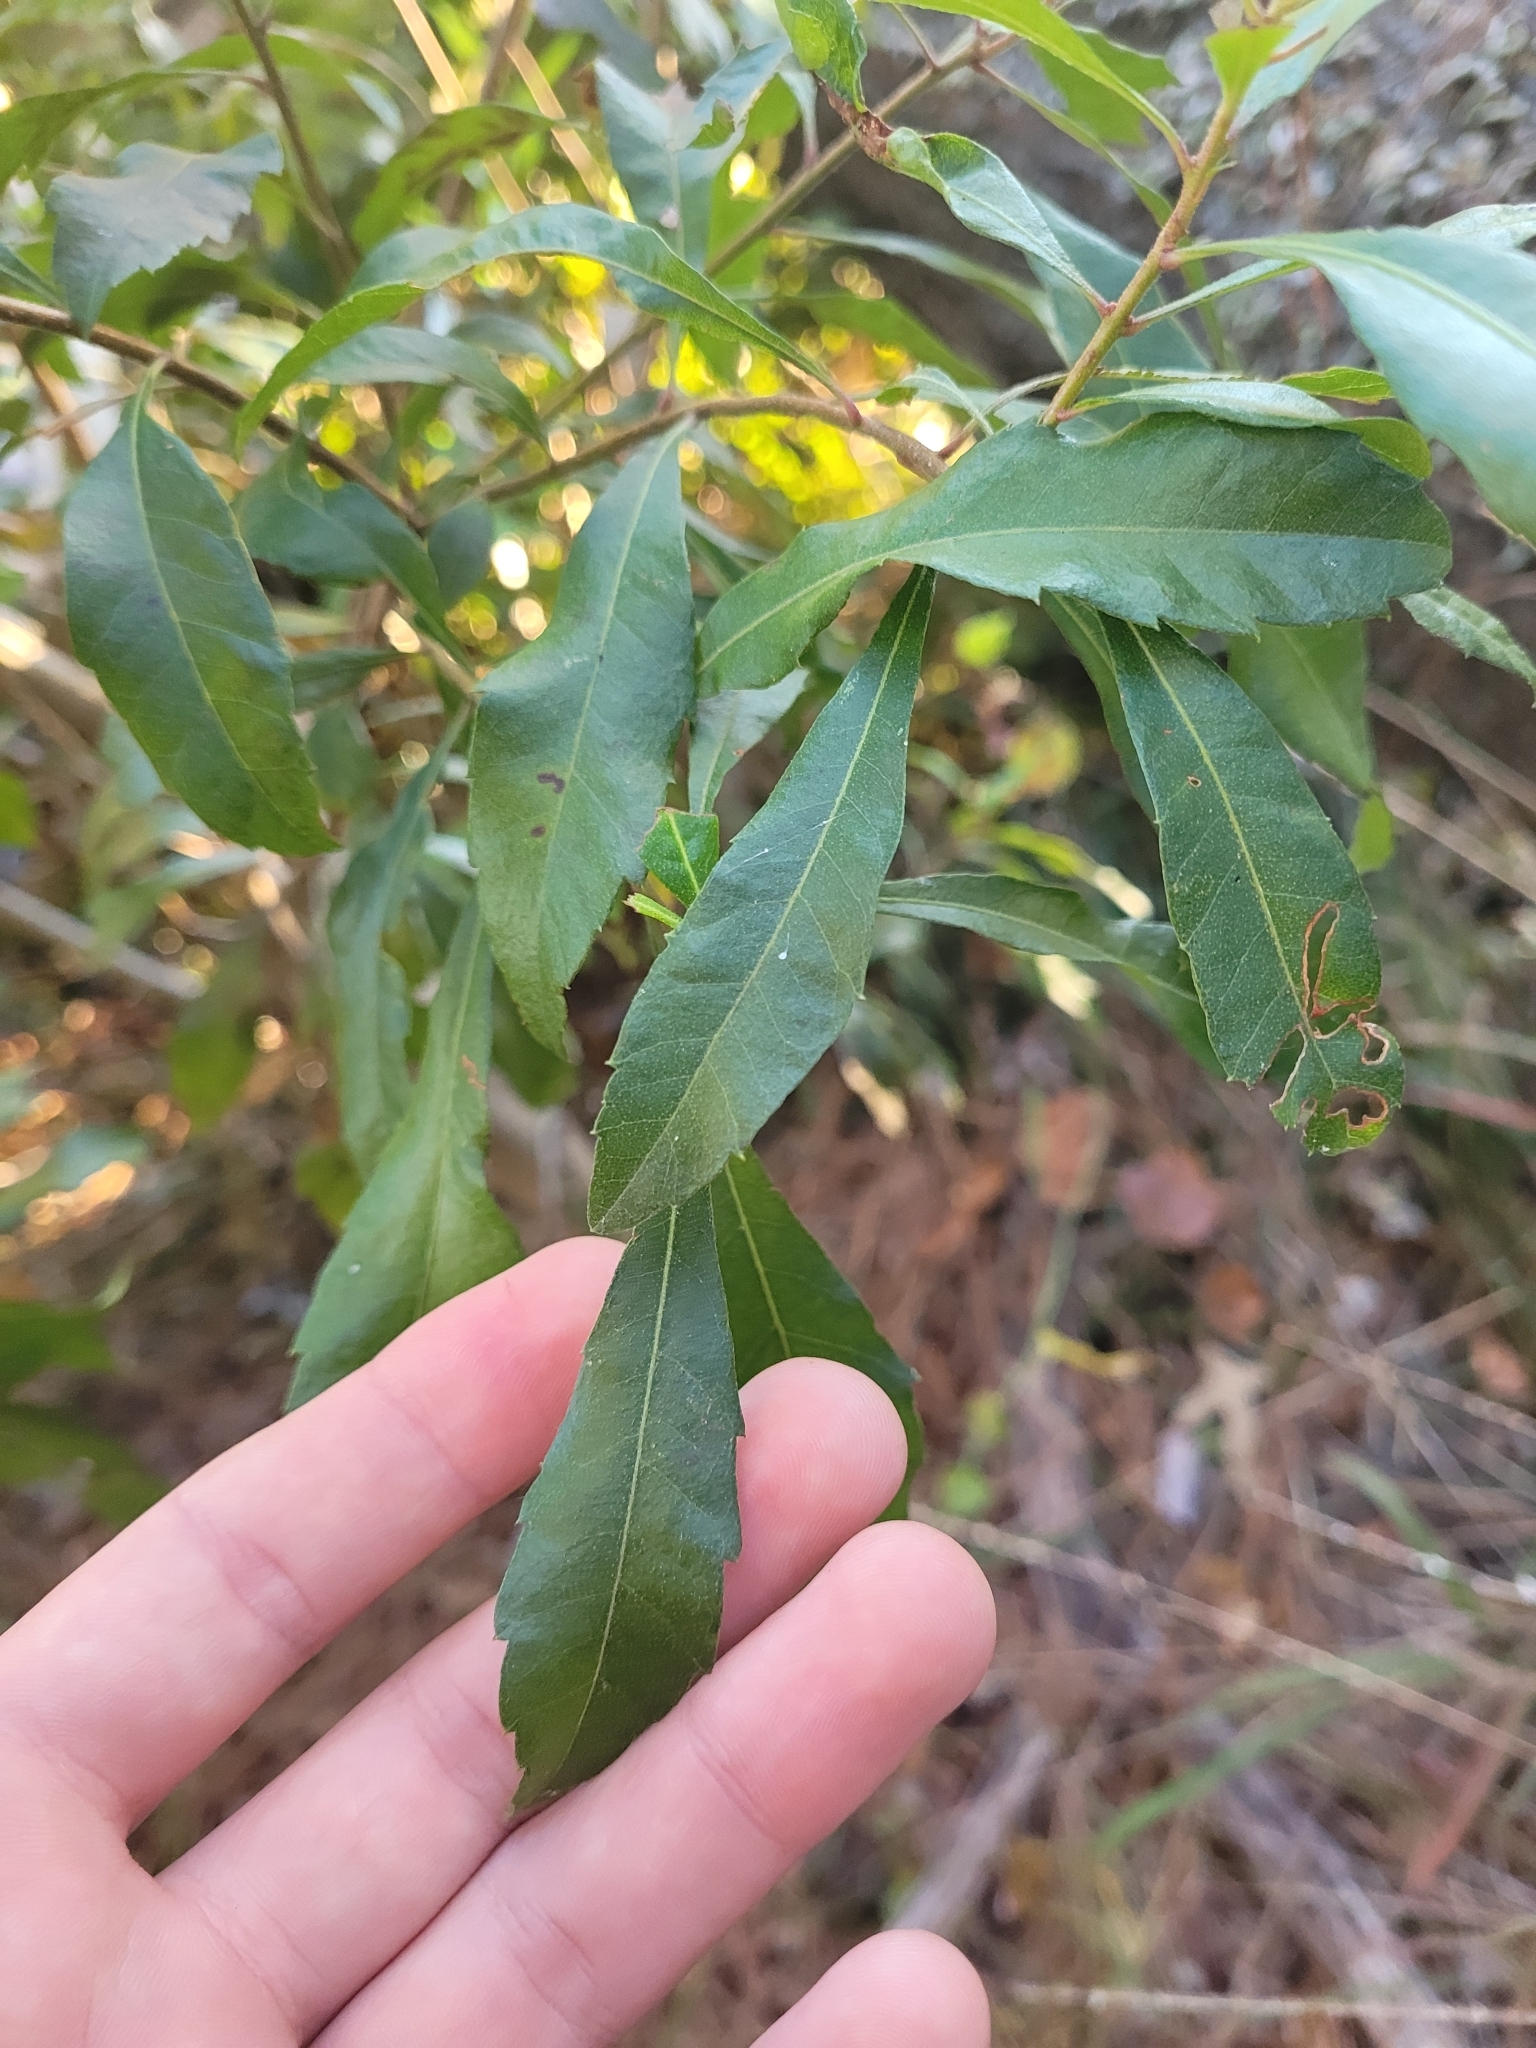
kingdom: Plantae
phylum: Tracheophyta
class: Magnoliopsida
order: Fagales
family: Myricaceae
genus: Morella
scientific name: Morella cerifera
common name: Wax myrtle
